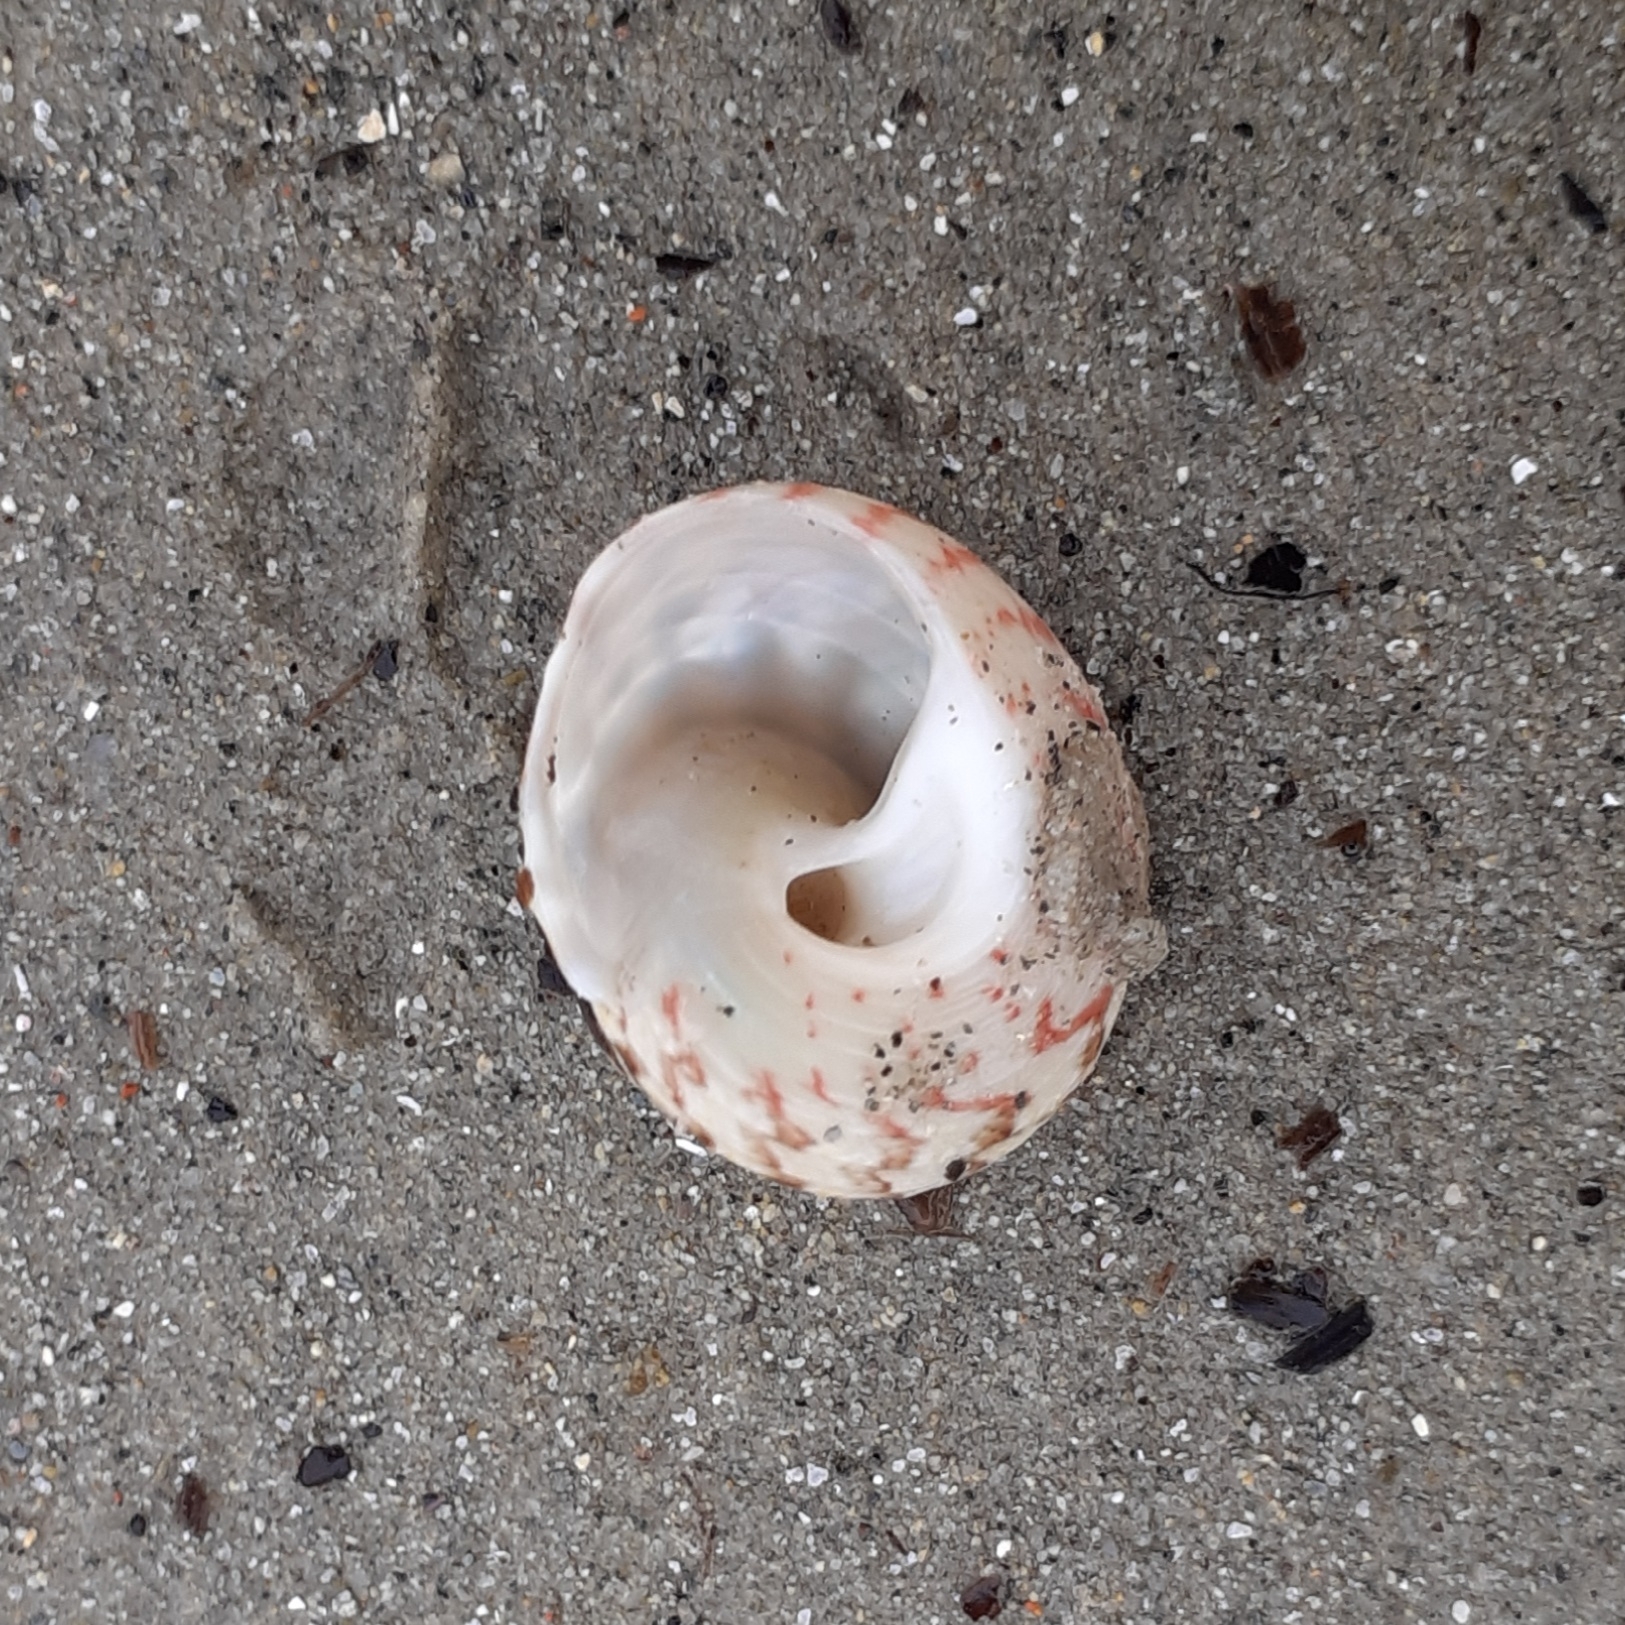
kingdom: Animalia
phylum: Mollusca
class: Gastropoda
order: Trochida
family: Trochidae
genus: Gibbula
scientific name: Gibbula magus
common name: Turban top shell
